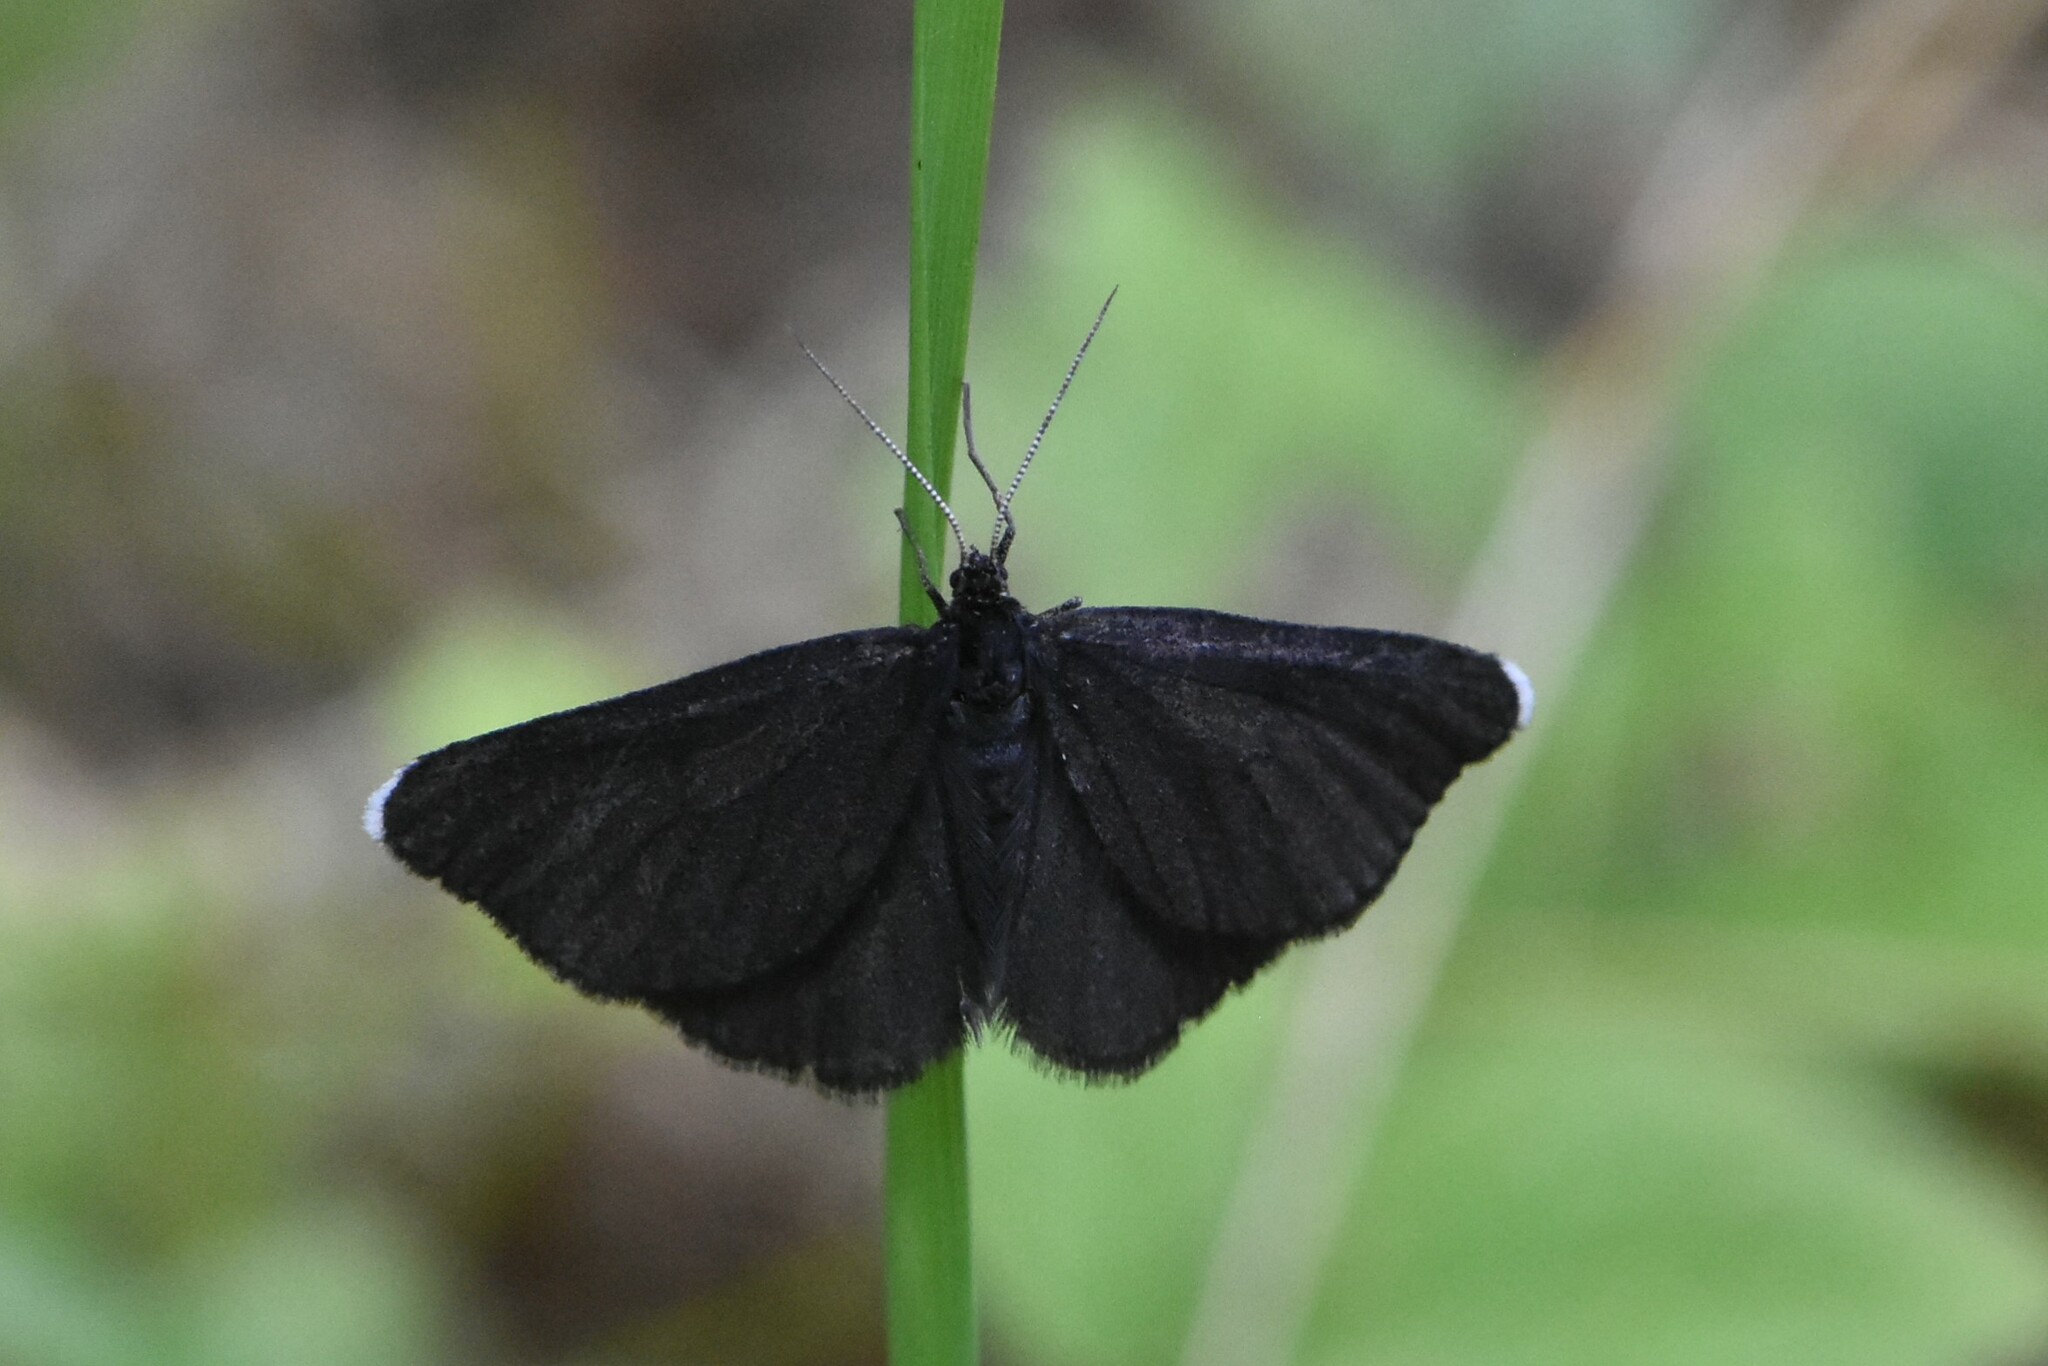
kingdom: Animalia
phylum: Arthropoda
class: Insecta
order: Lepidoptera
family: Geometridae
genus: Odezia
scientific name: Odezia atrata
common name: Chimney sweeper
